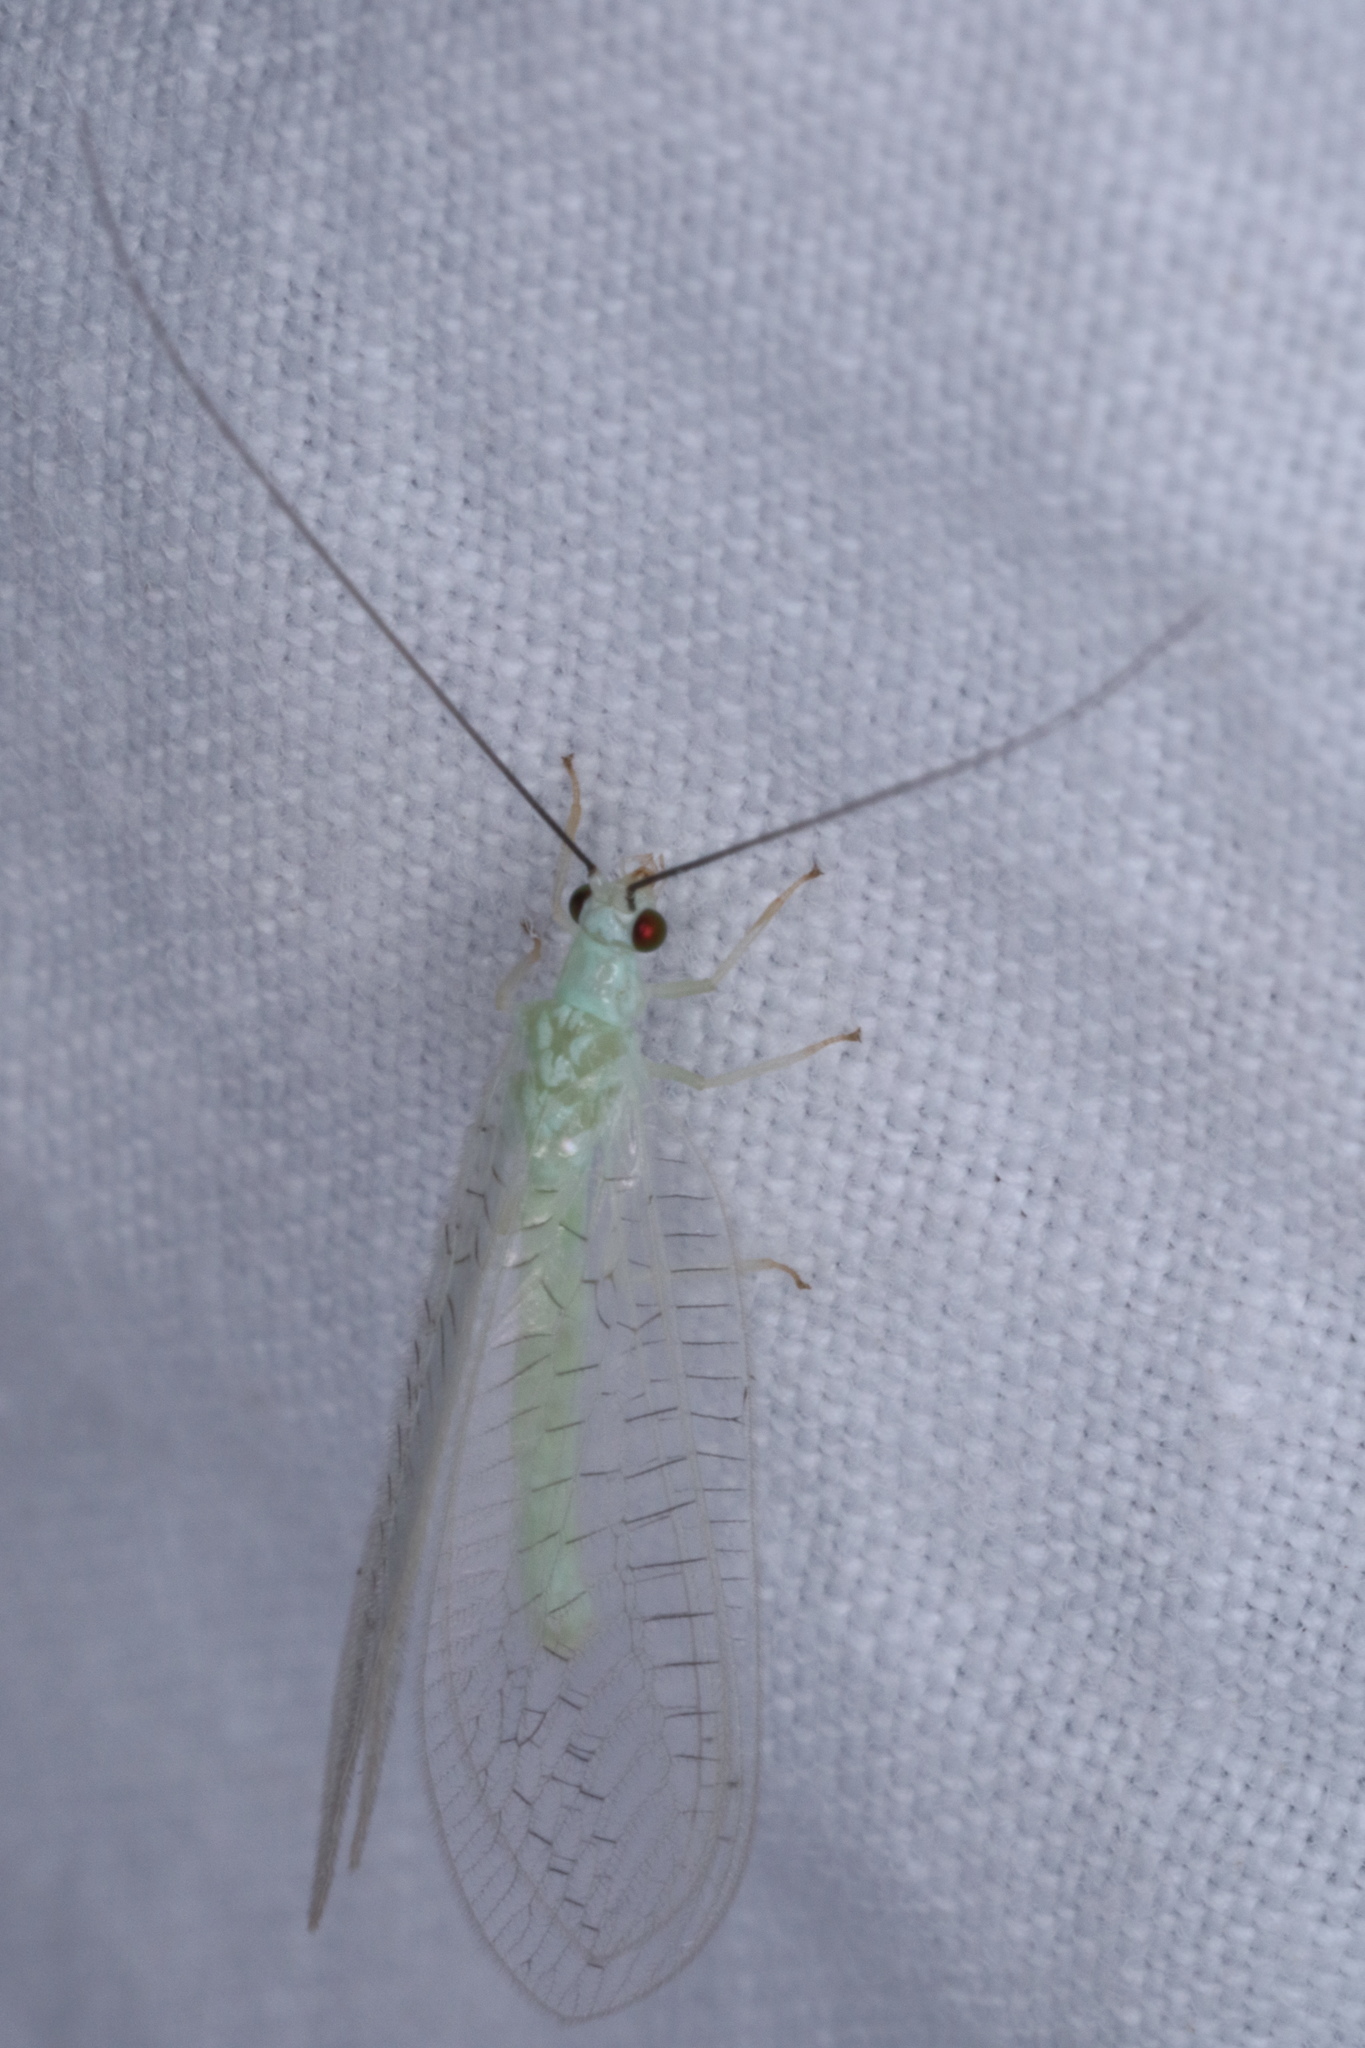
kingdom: Animalia
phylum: Arthropoda
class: Insecta
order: Neuroptera
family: Chrysopidae
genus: Ceraeochrysa
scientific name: Ceraeochrysa lineaticornis
